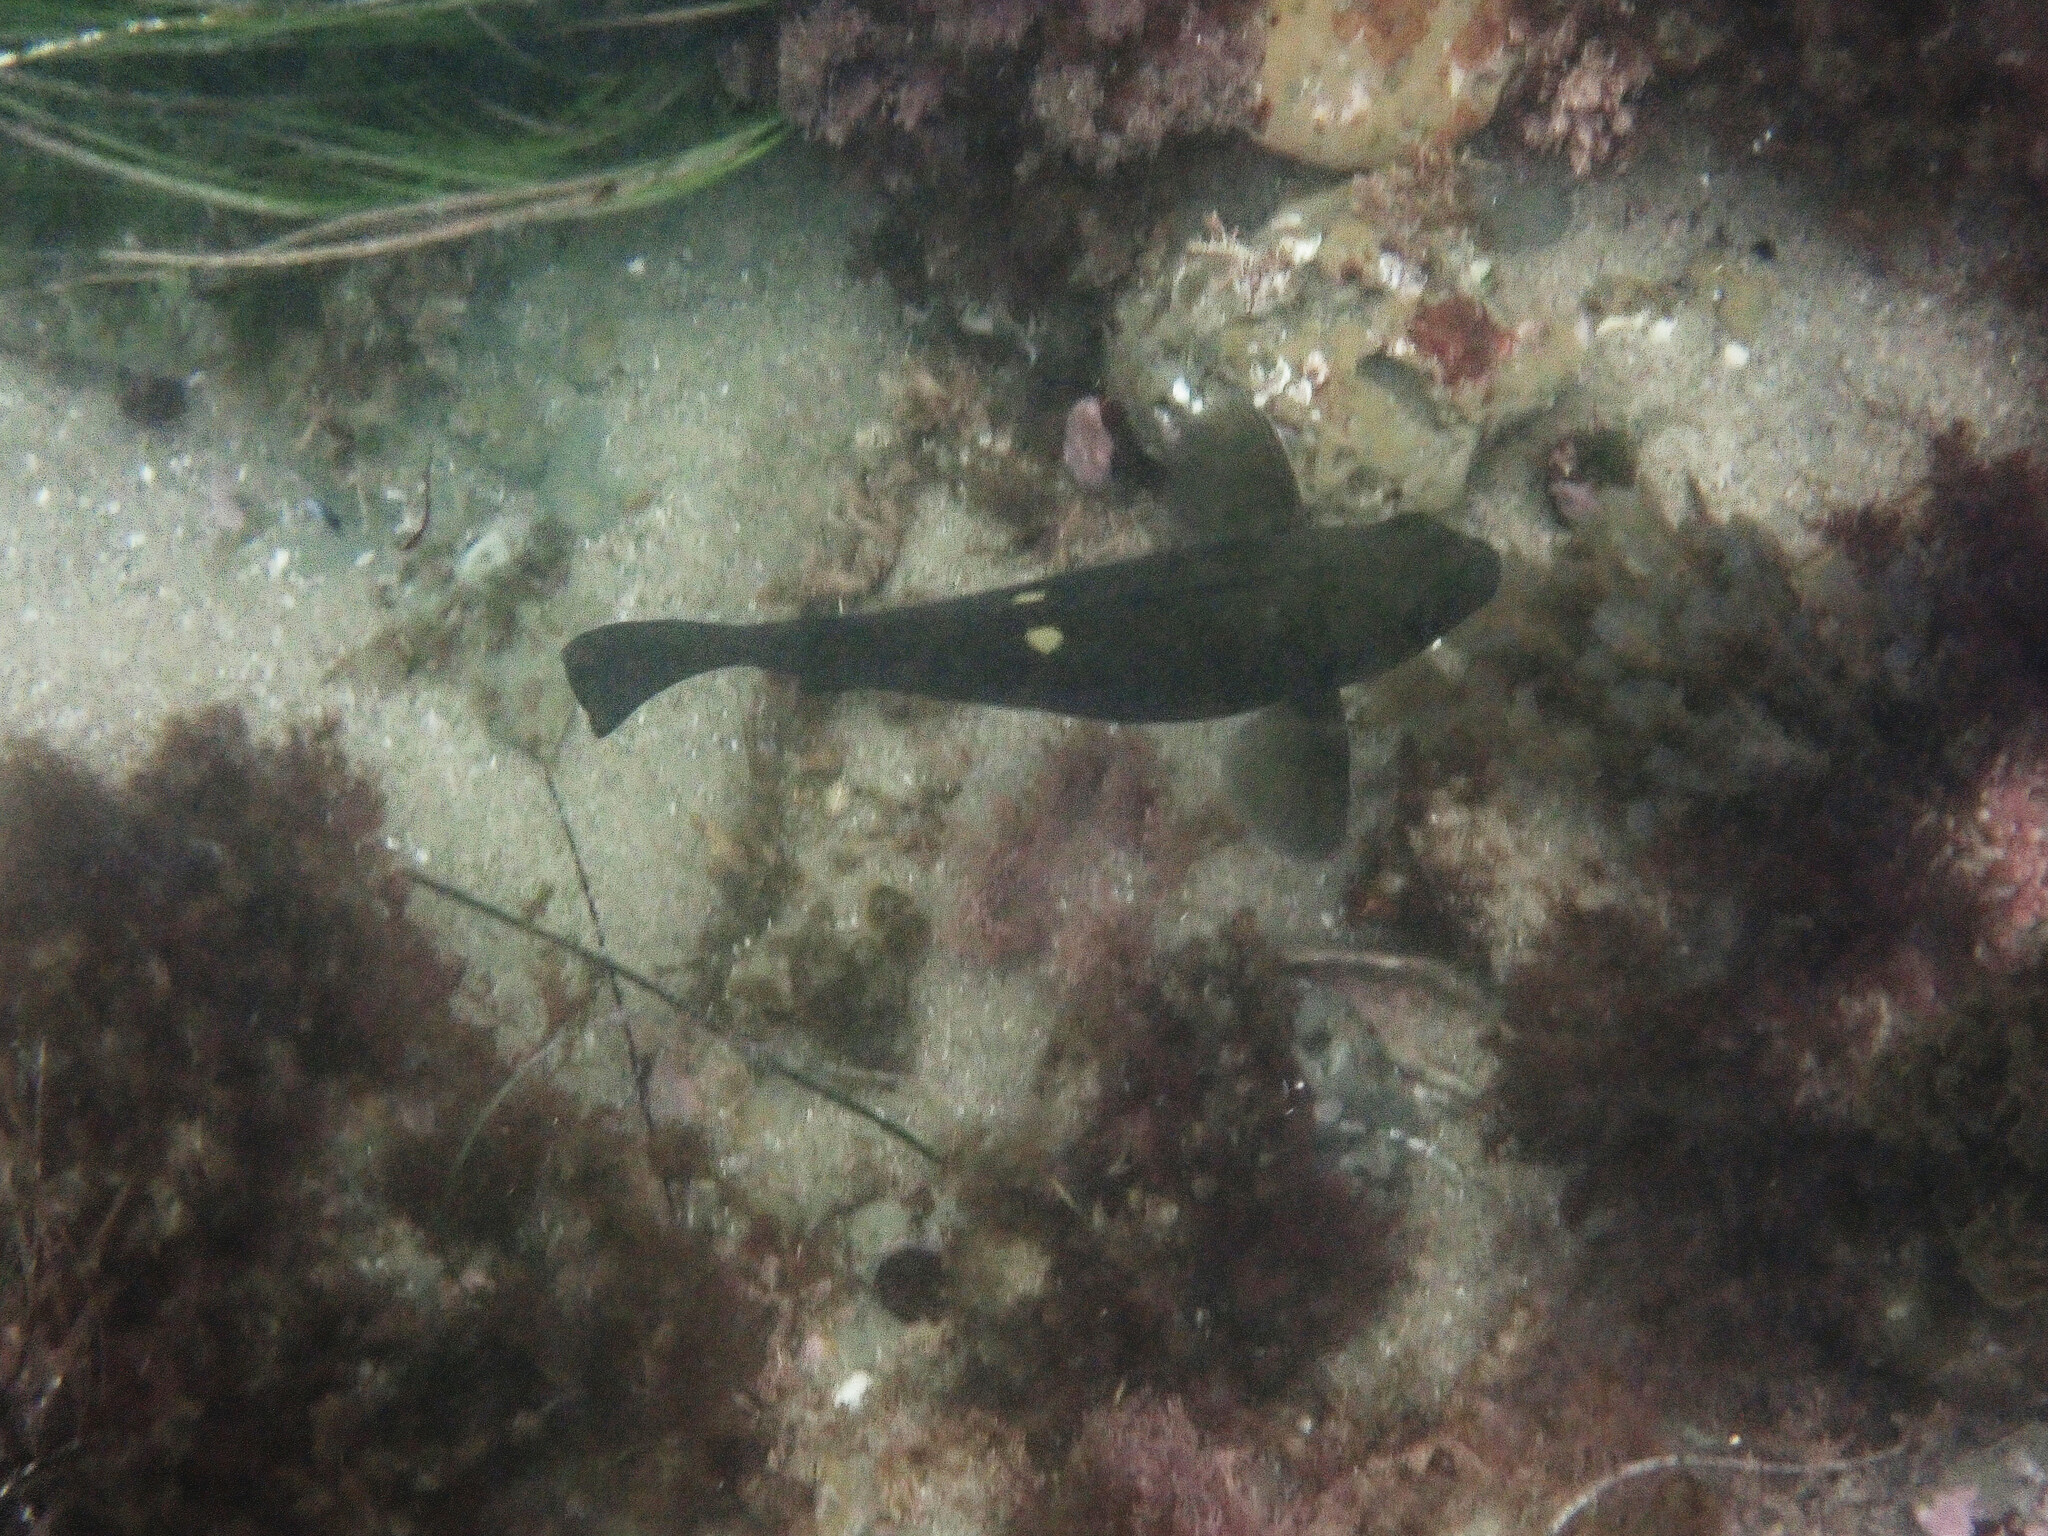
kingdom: Animalia
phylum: Chordata
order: Perciformes
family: Kyphosidae
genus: Girella
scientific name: Girella nigricans
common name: Opaleye
